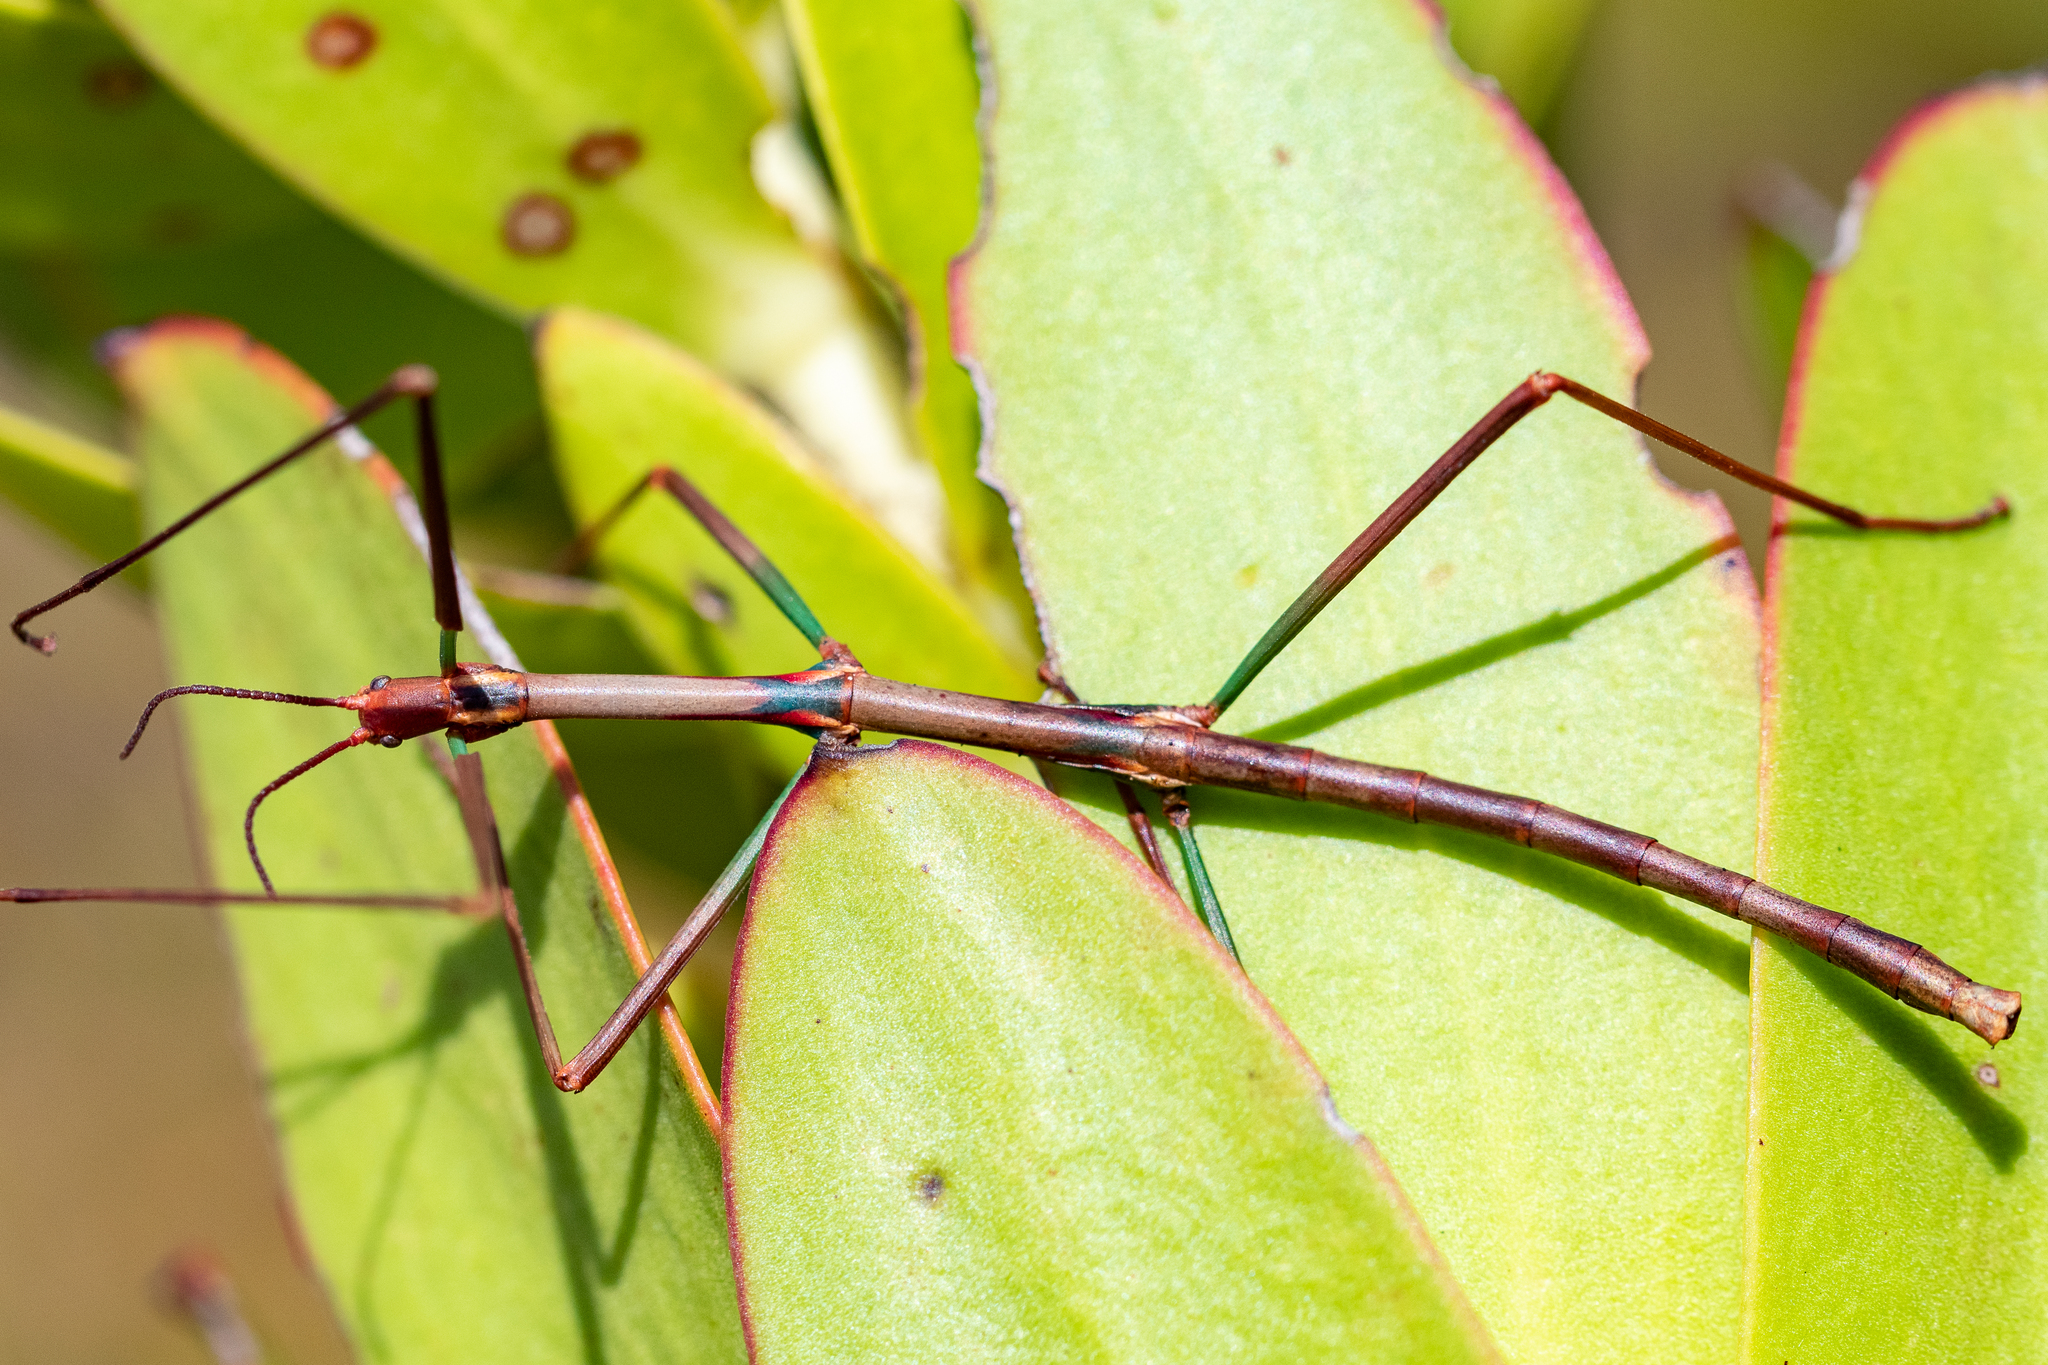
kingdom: Animalia
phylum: Arthropoda
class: Insecta
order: Phasmida
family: Bacillidae
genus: Phalces
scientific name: Phalces brevis
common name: Cape stick insect
